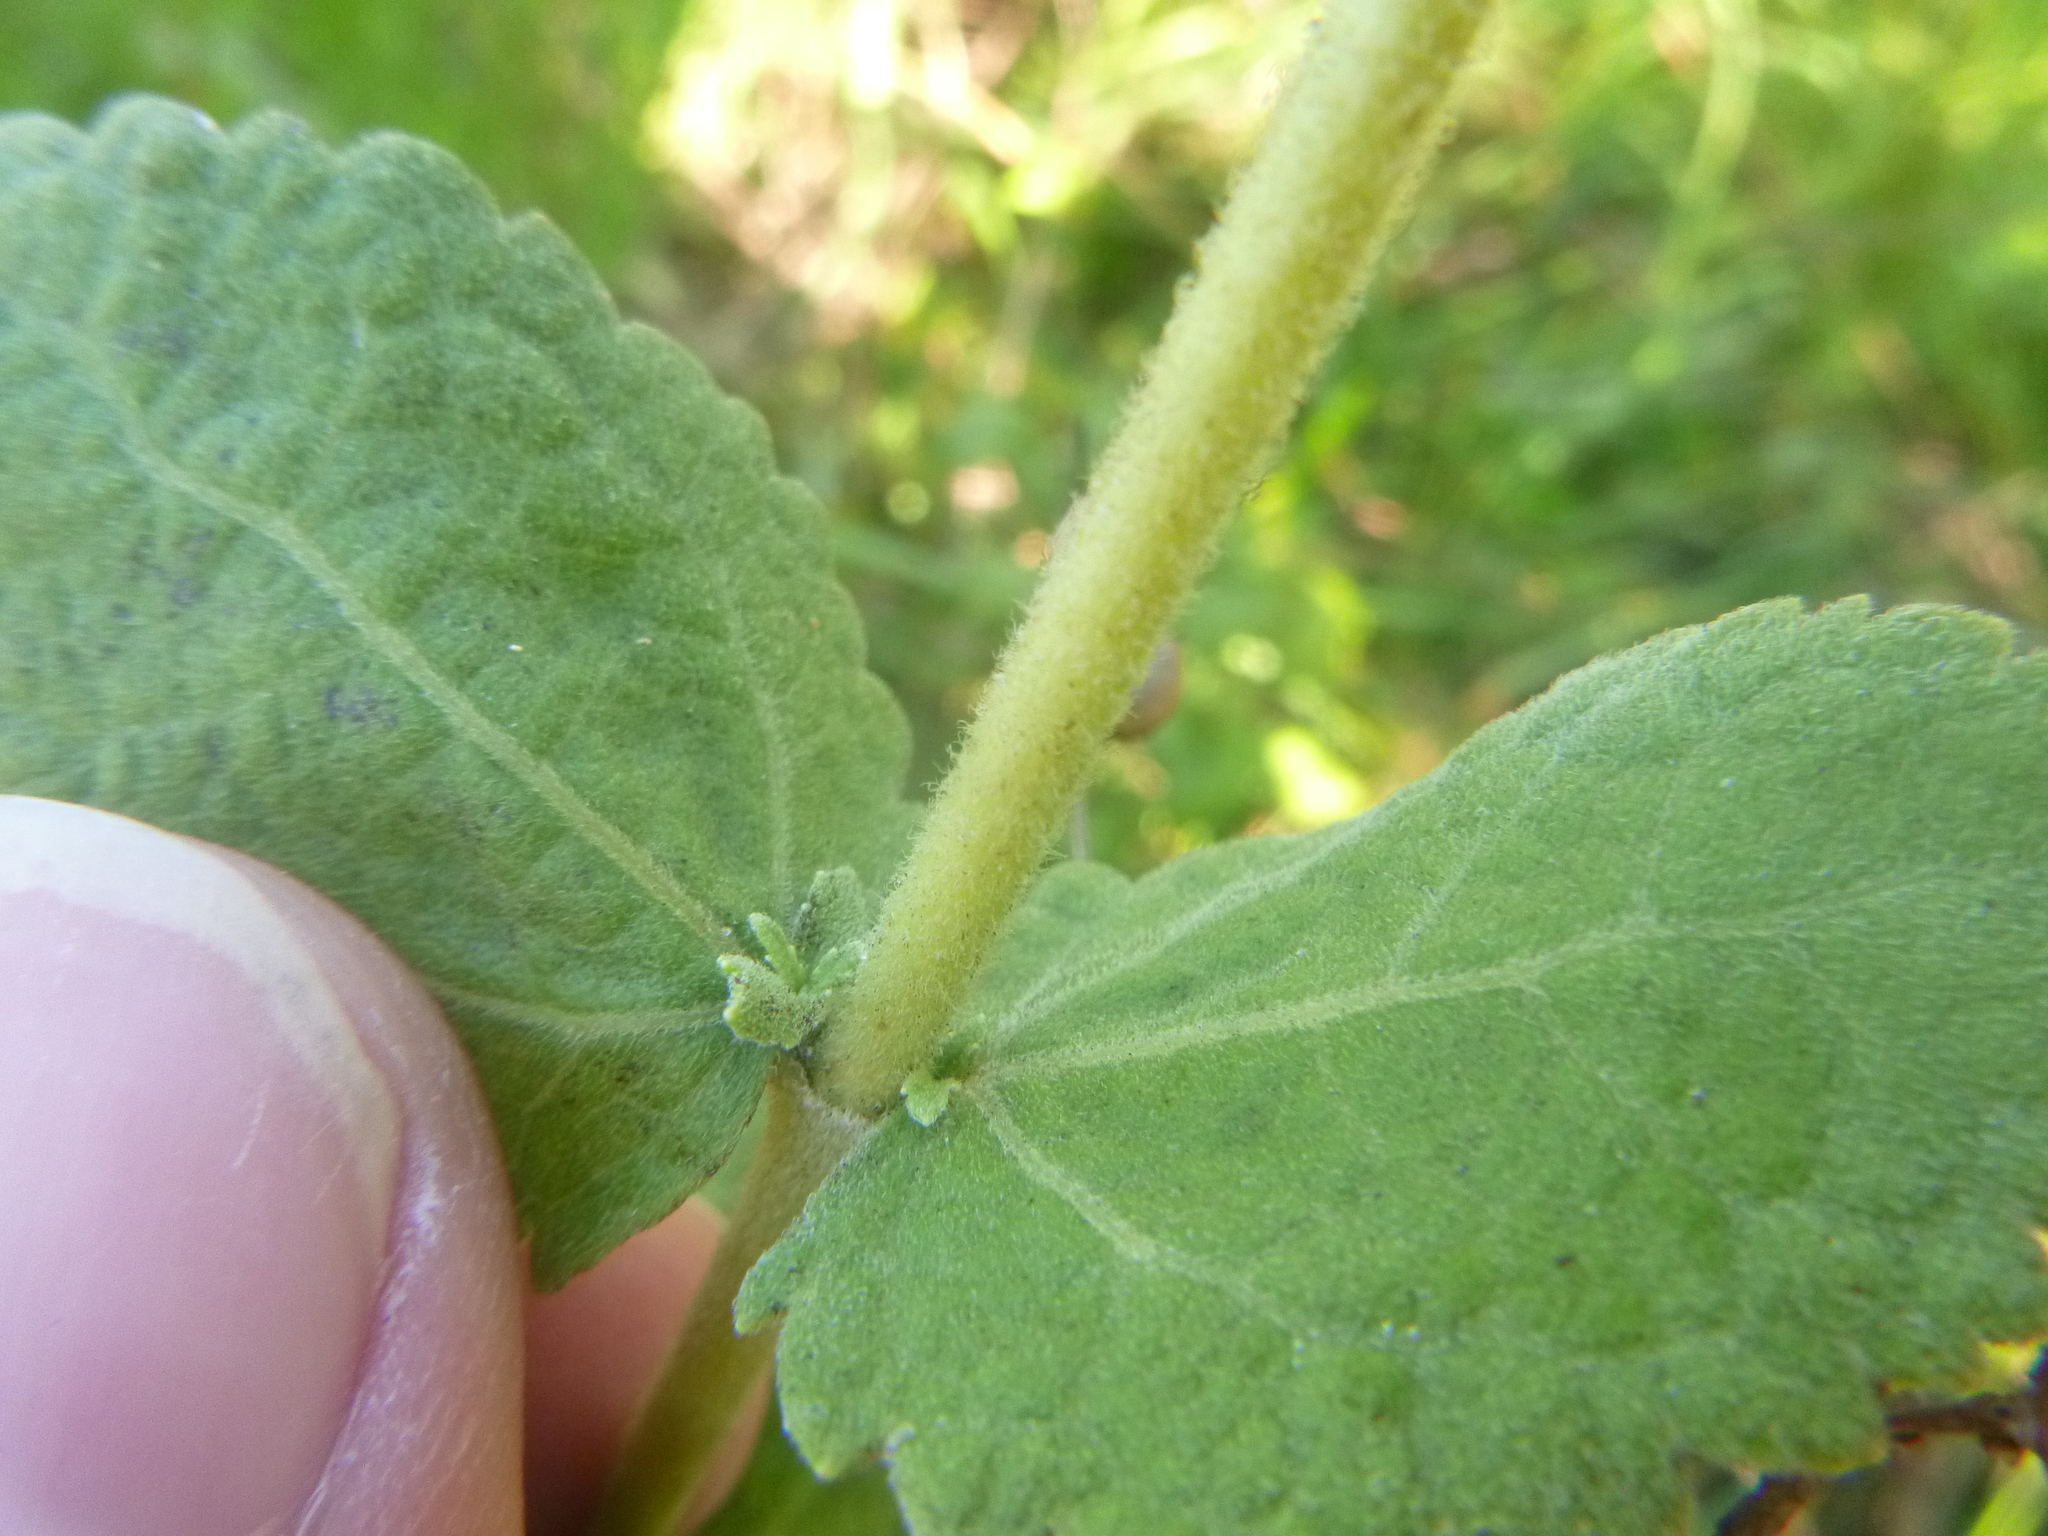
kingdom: Plantae
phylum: Tracheophyta
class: Magnoliopsida
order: Asterales
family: Asteraceae
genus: Eupatorium
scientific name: Eupatorium rotundifolium
